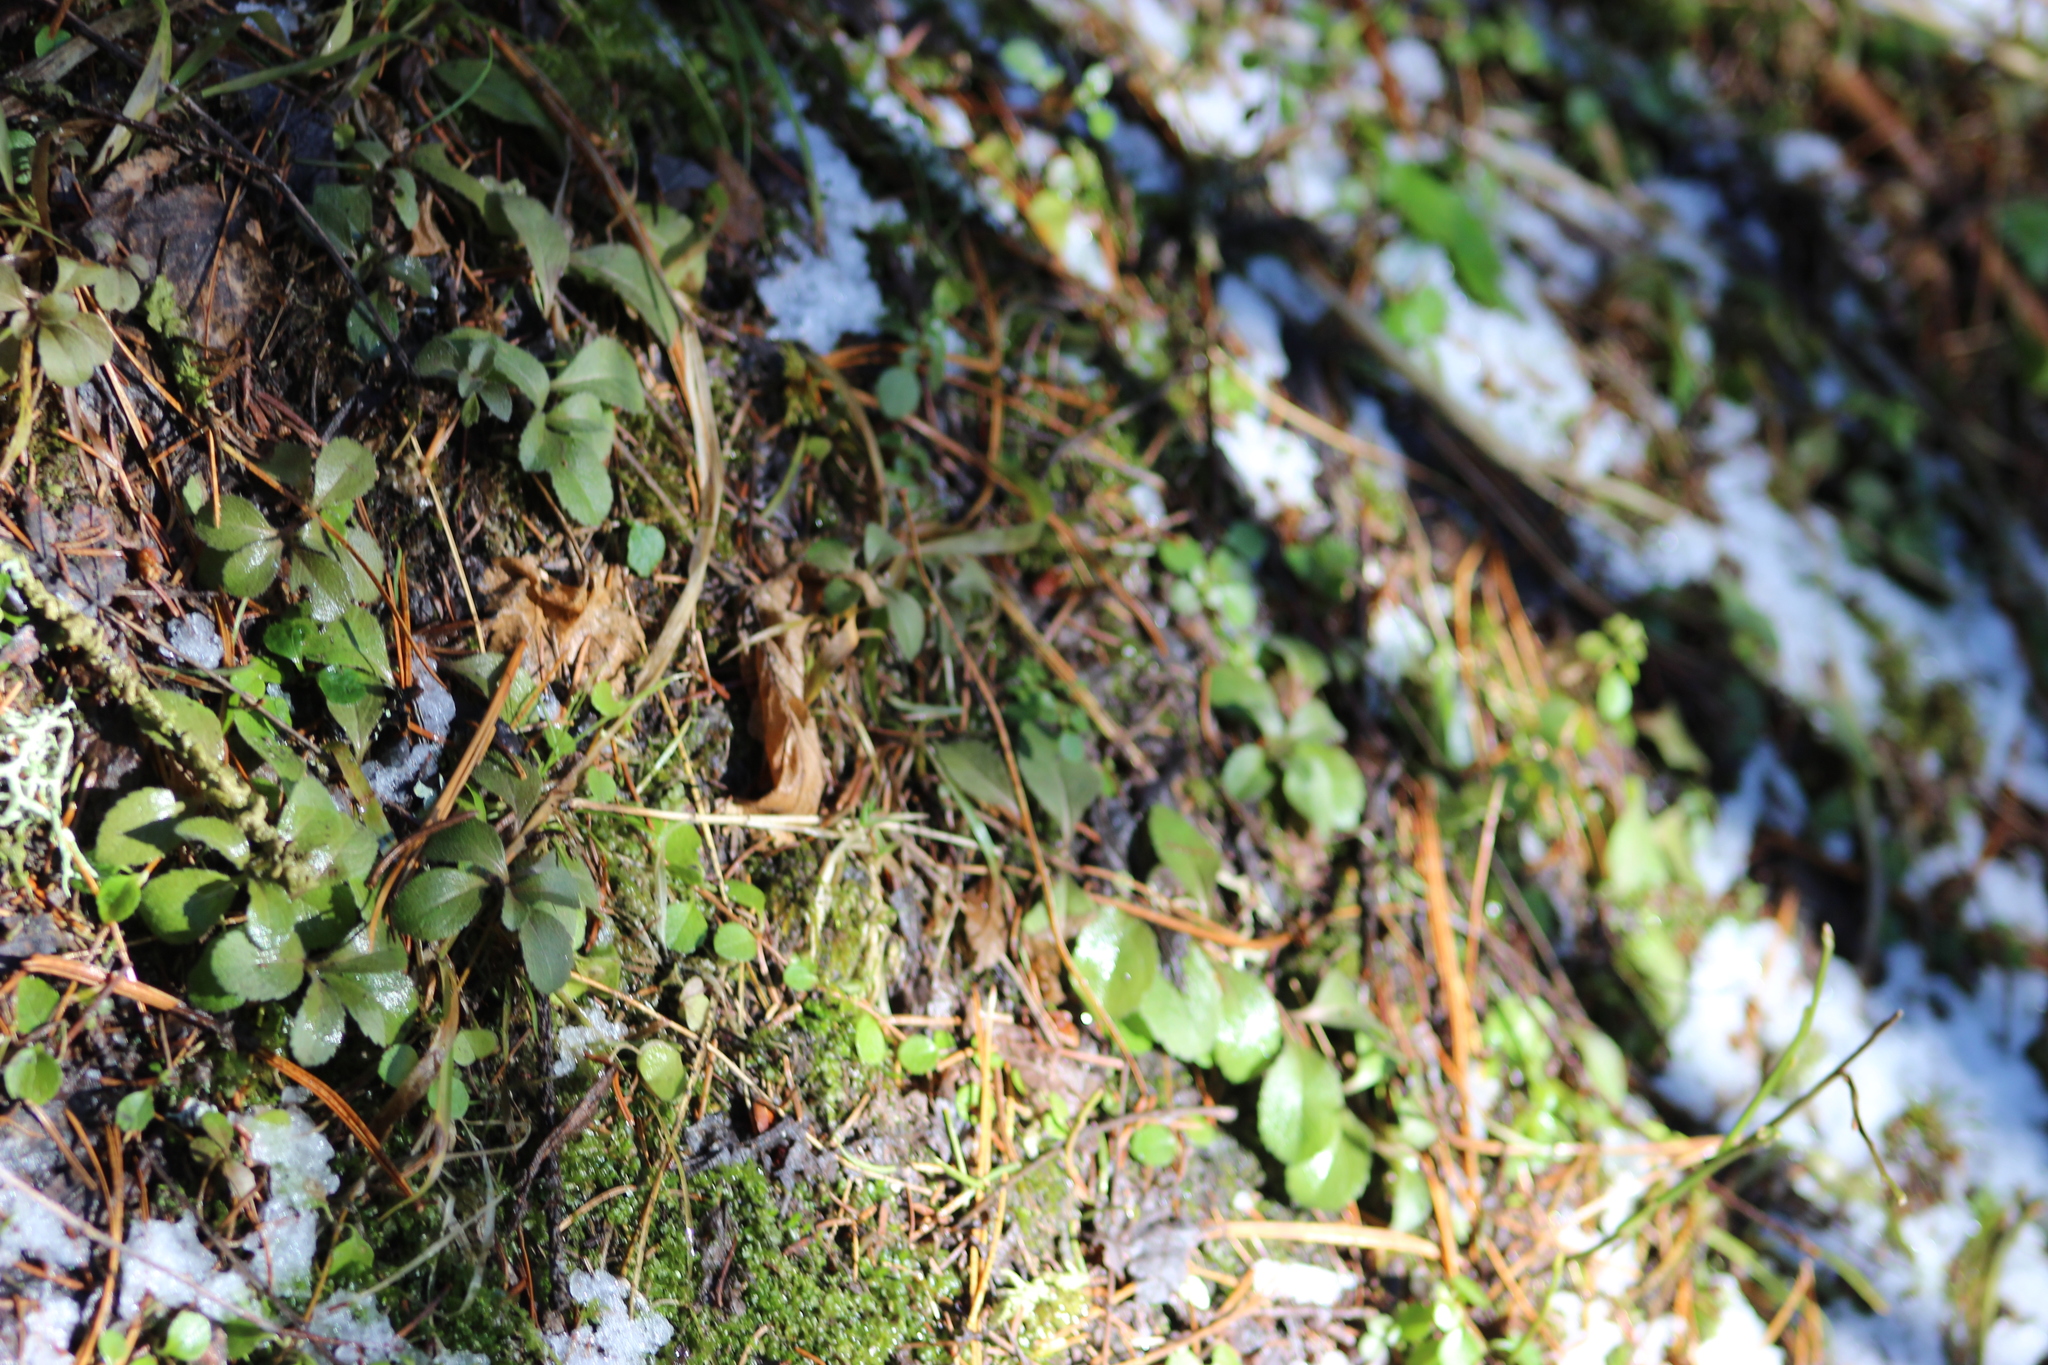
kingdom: Plantae
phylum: Tracheophyta
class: Magnoliopsida
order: Lamiales
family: Plantaginaceae
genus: Veronica
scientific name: Veronica officinalis
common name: Common speedwell
